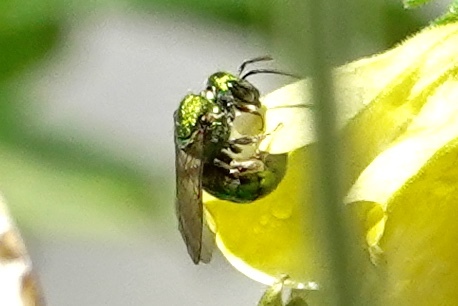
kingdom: Animalia
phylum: Arthropoda
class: Insecta
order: Hymenoptera
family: Halictidae
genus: Augochlora
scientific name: Augochlora pura
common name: Pure green sweat bee
